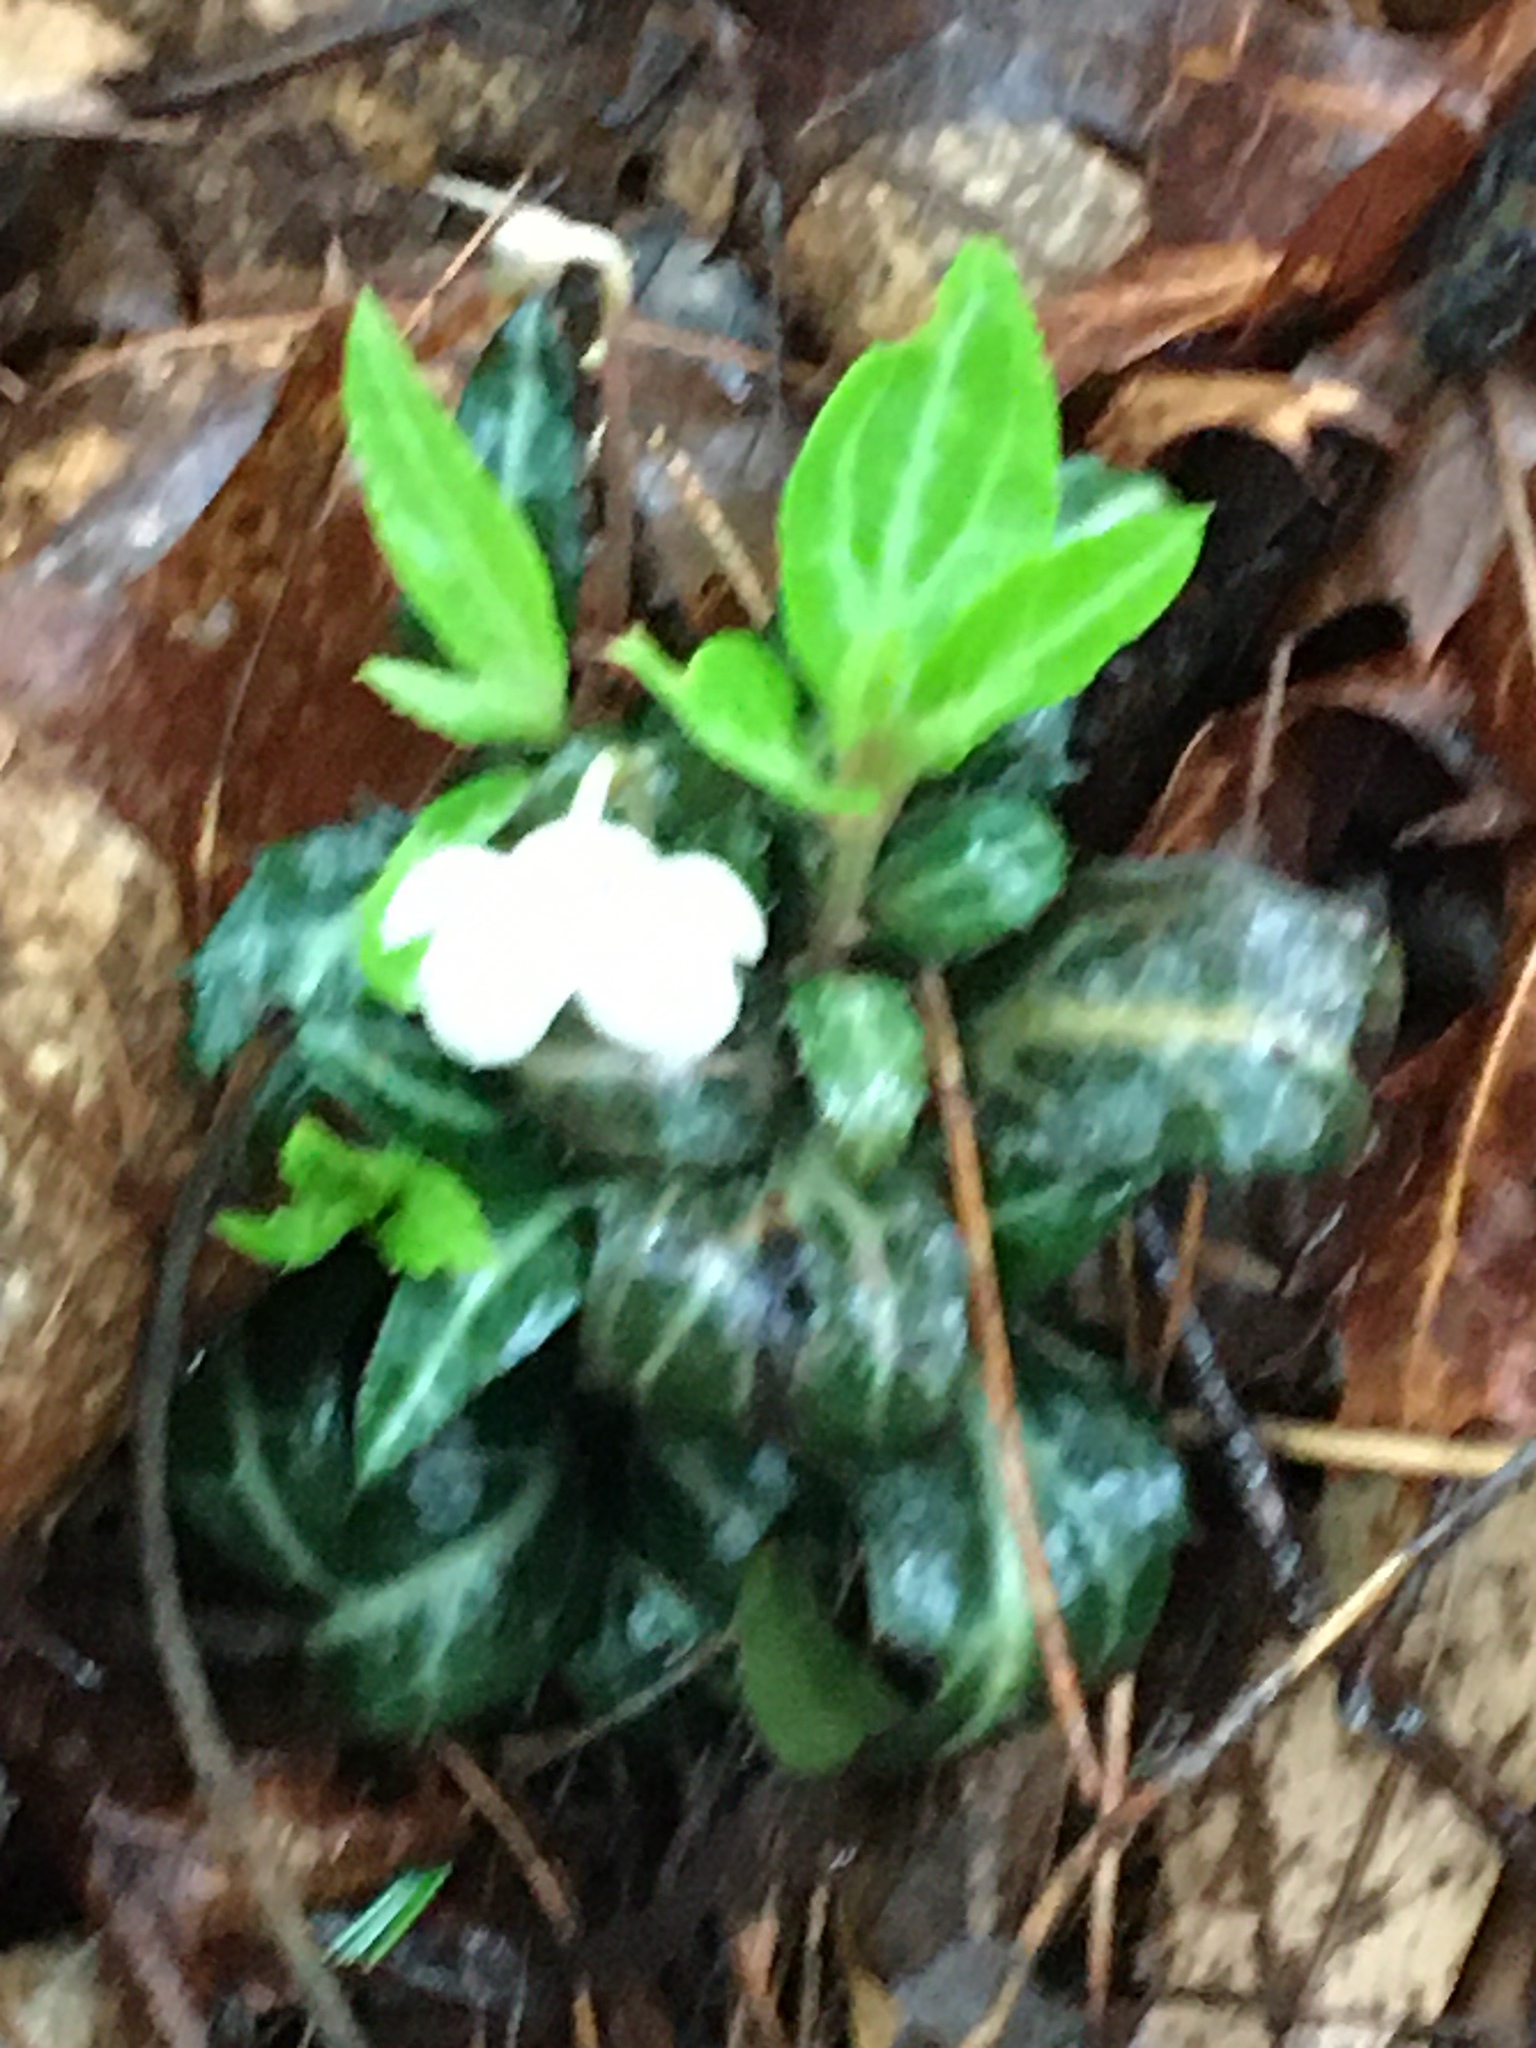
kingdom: Plantae
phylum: Tracheophyta
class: Magnoliopsida
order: Ericales
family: Ericaceae
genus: Chimaphila
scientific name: Chimaphila maculata
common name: Spotted pipsissewa
